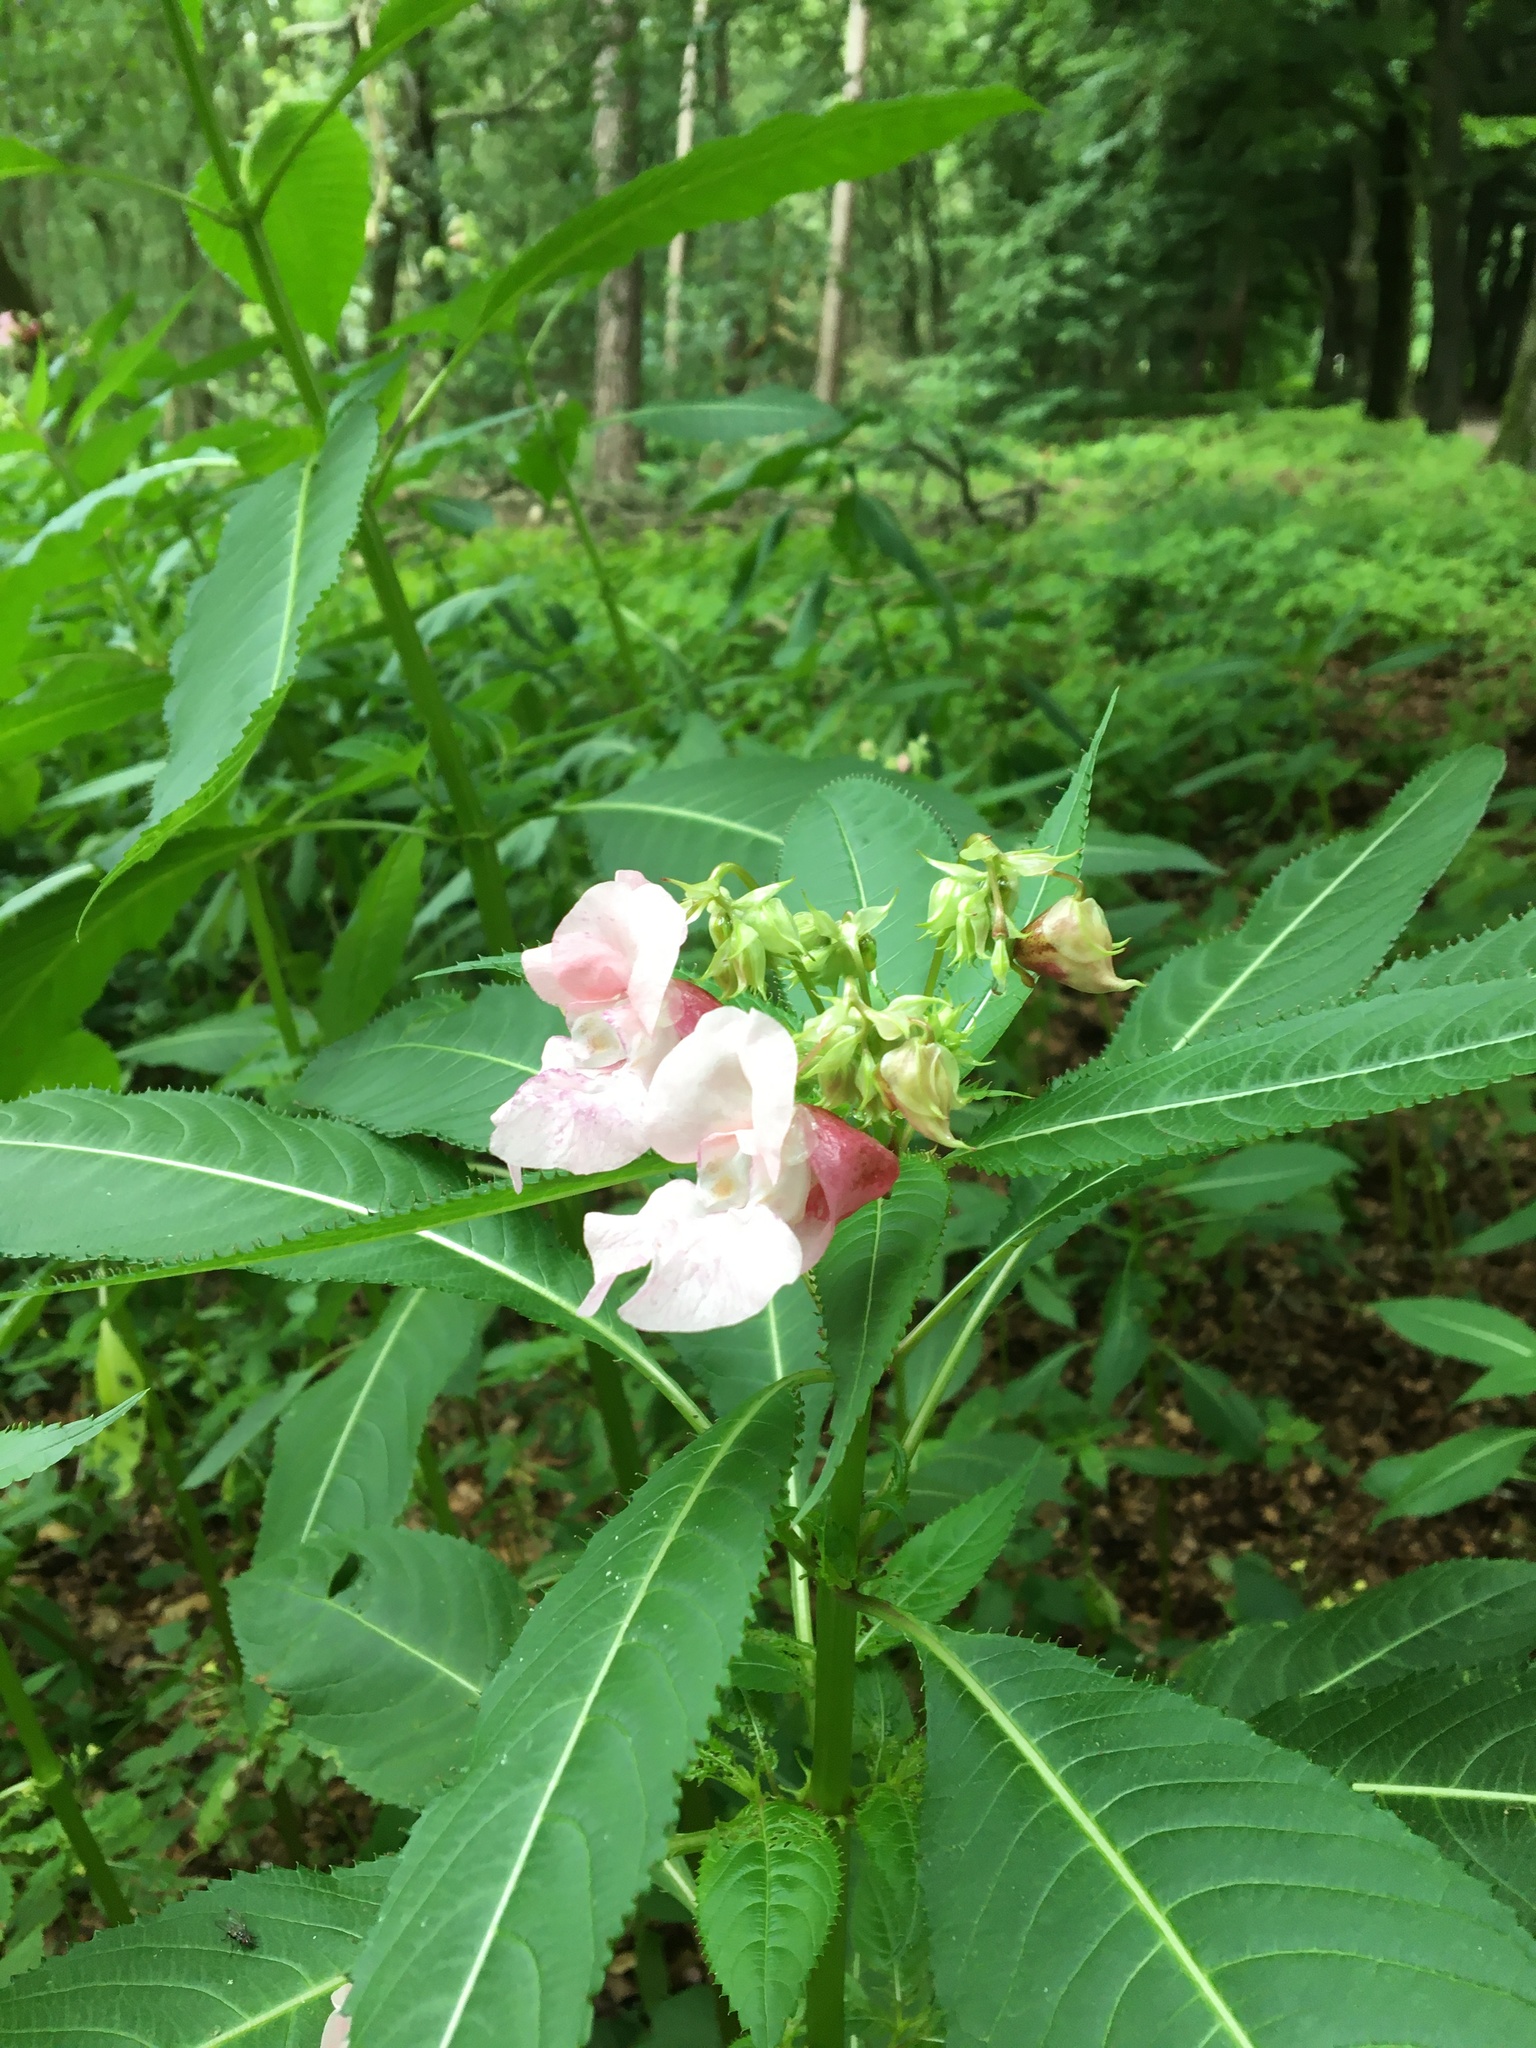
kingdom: Plantae
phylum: Tracheophyta
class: Magnoliopsida
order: Ericales
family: Balsaminaceae
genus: Impatiens
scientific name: Impatiens glandulifera
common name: Himalayan balsam
